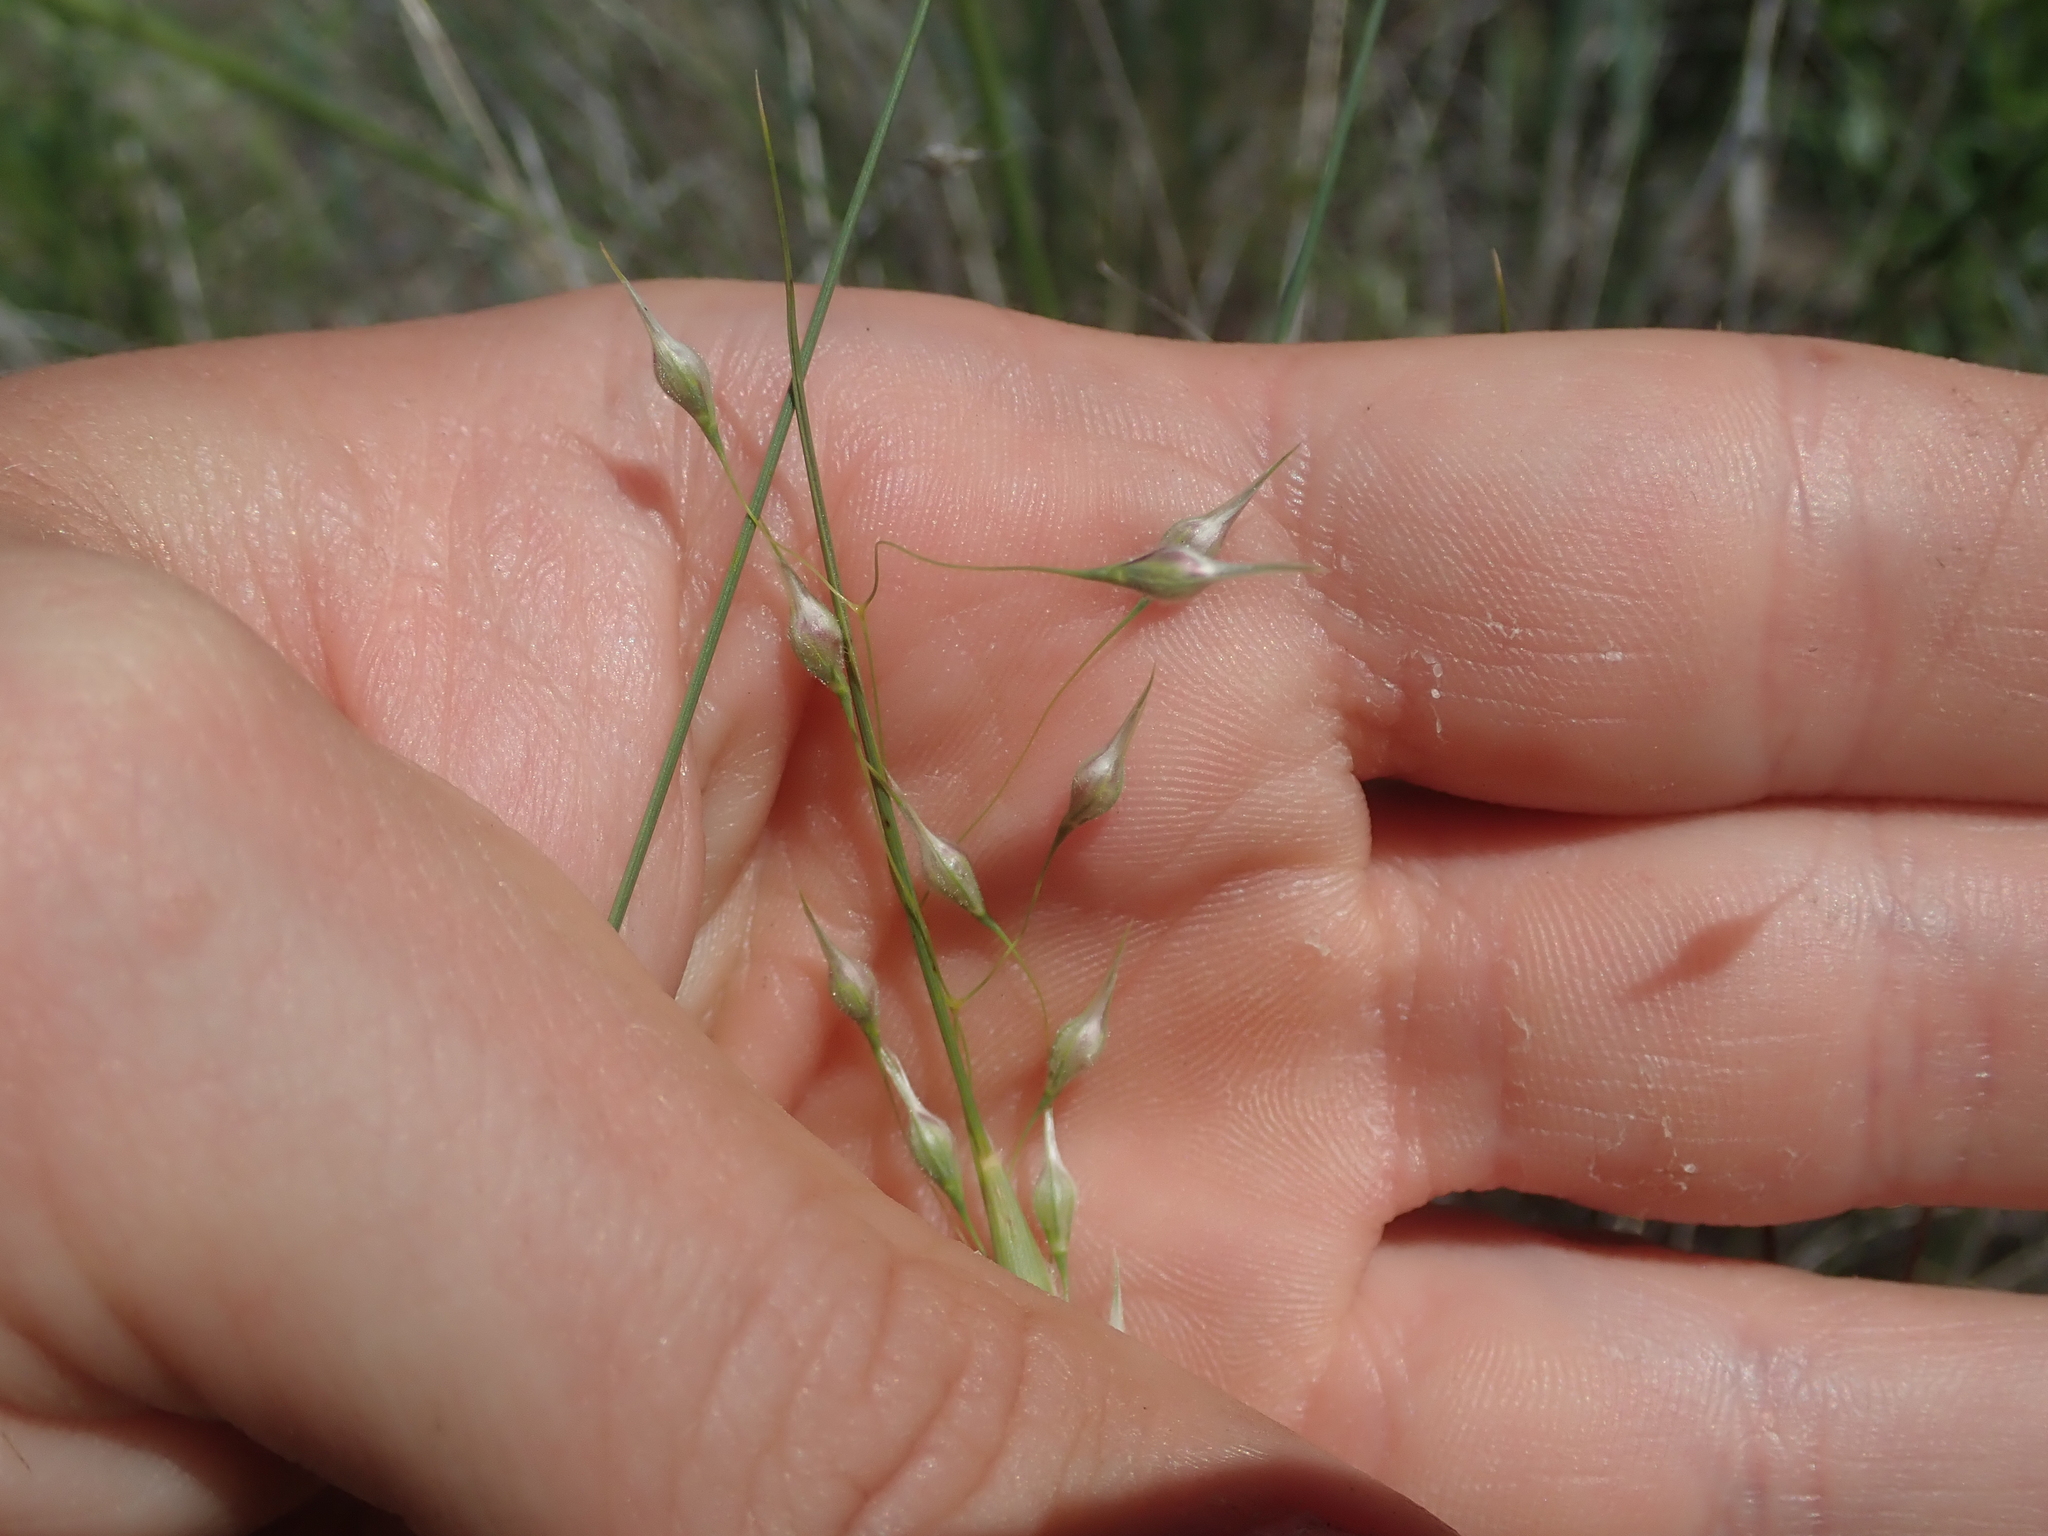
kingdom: Plantae
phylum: Tracheophyta
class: Liliopsida
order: Poales
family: Poaceae
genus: Eriocoma
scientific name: Eriocoma hymenoides
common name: Indian mountain ricegrass
